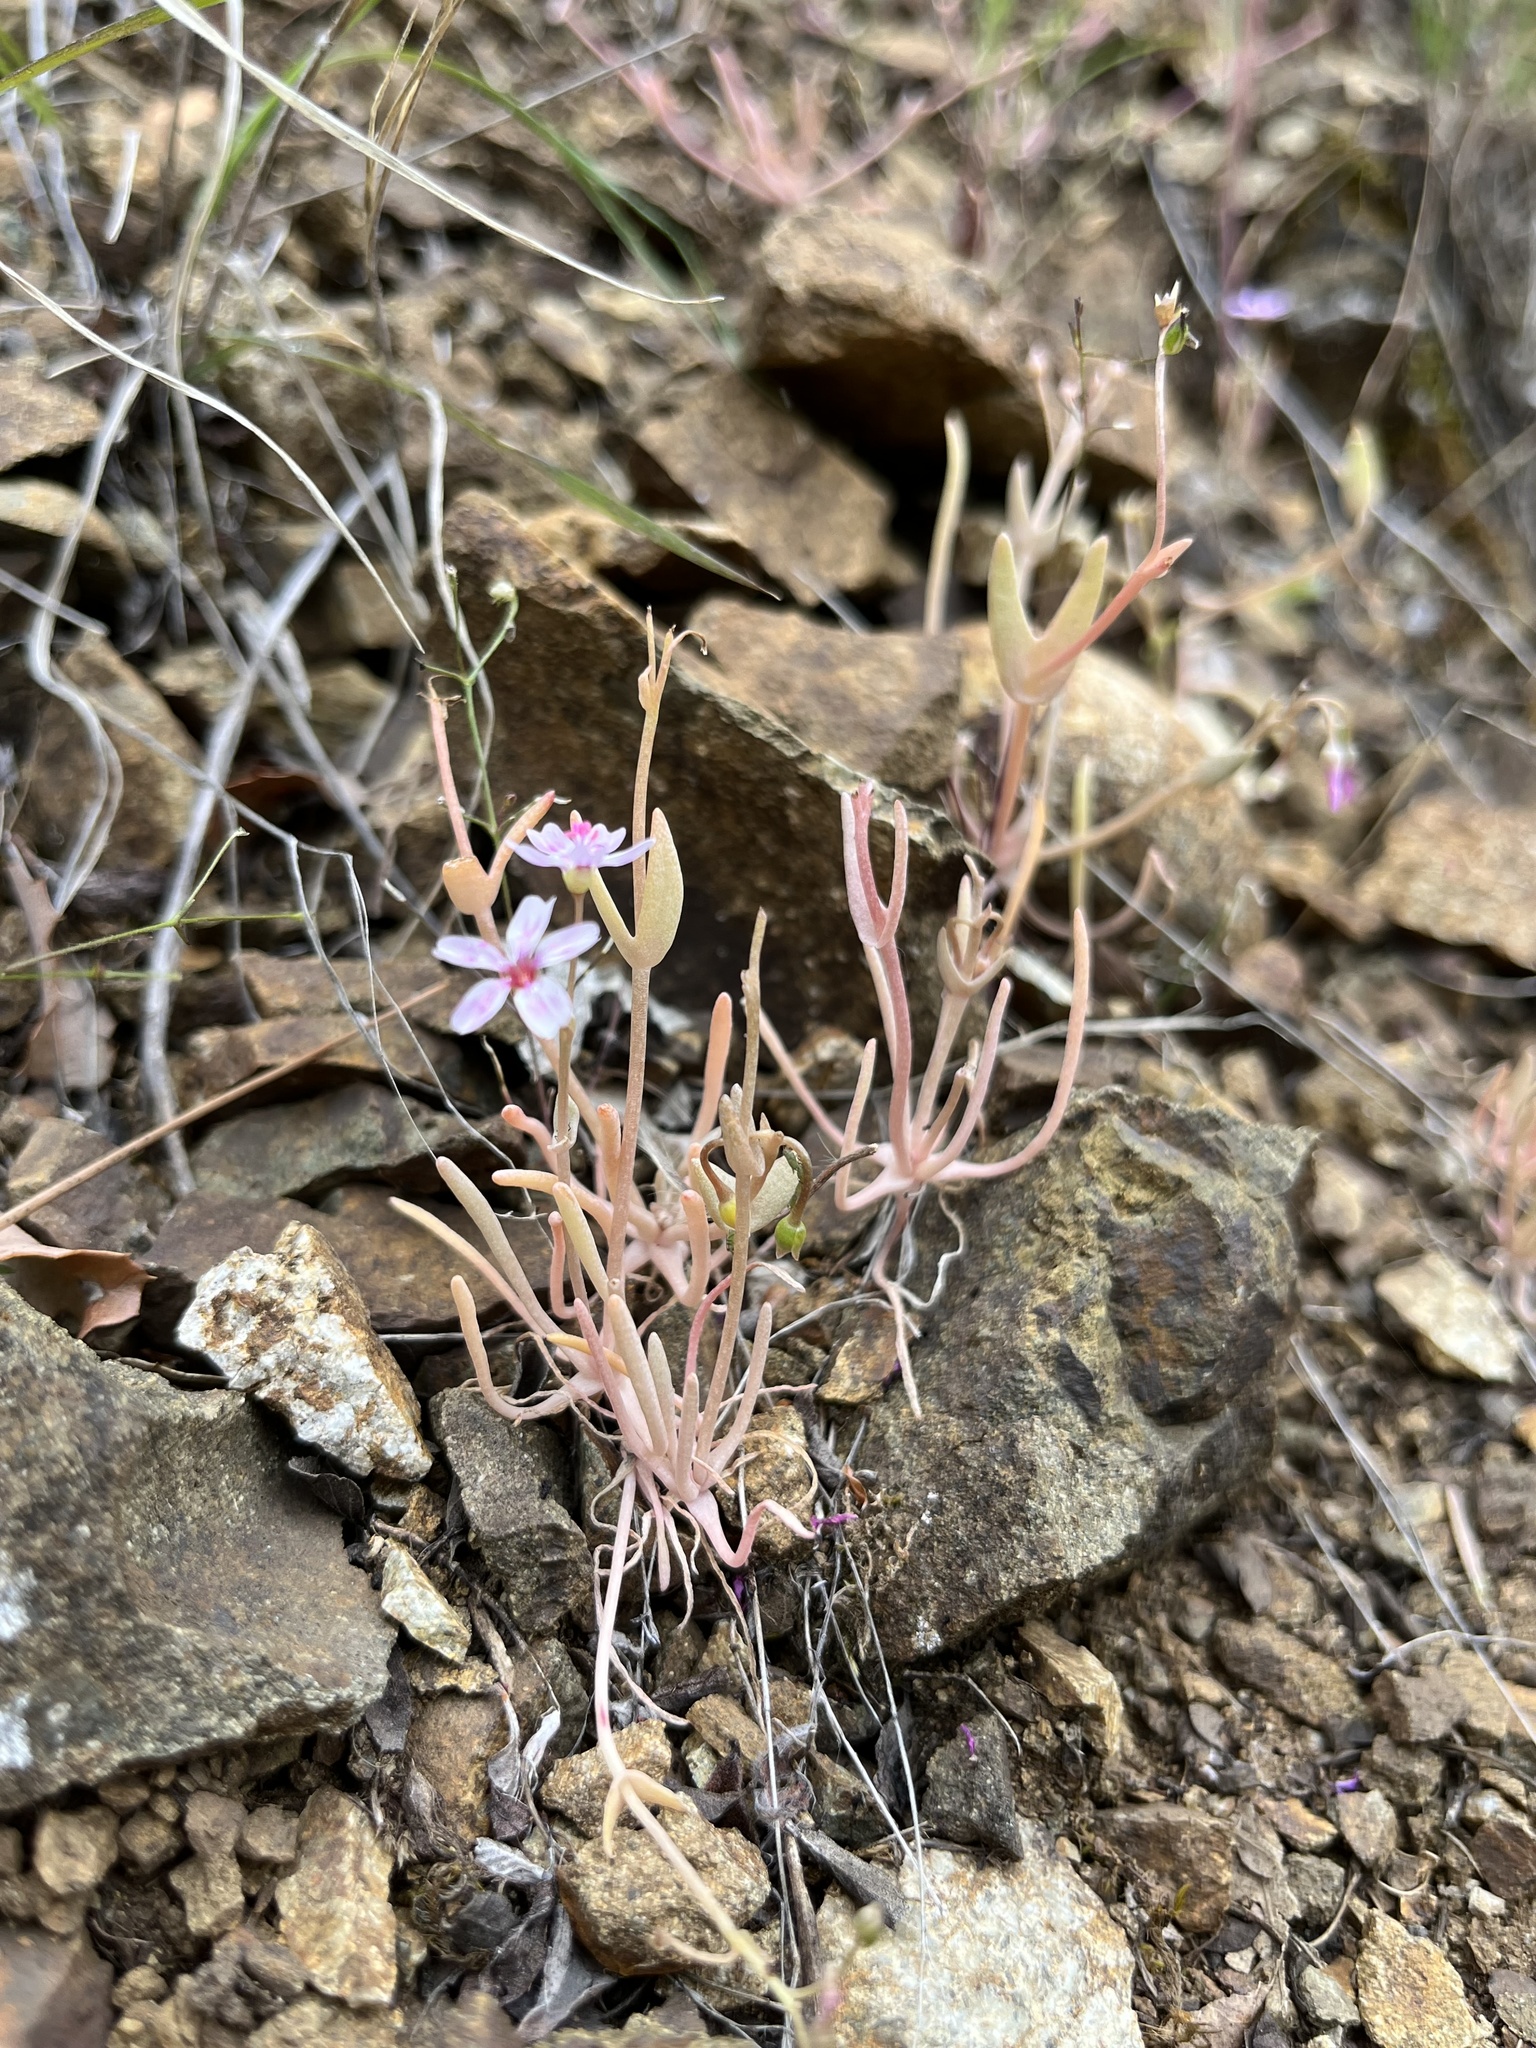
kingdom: Plantae
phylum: Tracheophyta
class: Magnoliopsida
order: Caryophyllales
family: Montiaceae
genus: Claytonia
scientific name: Claytonia gypsophiloides
